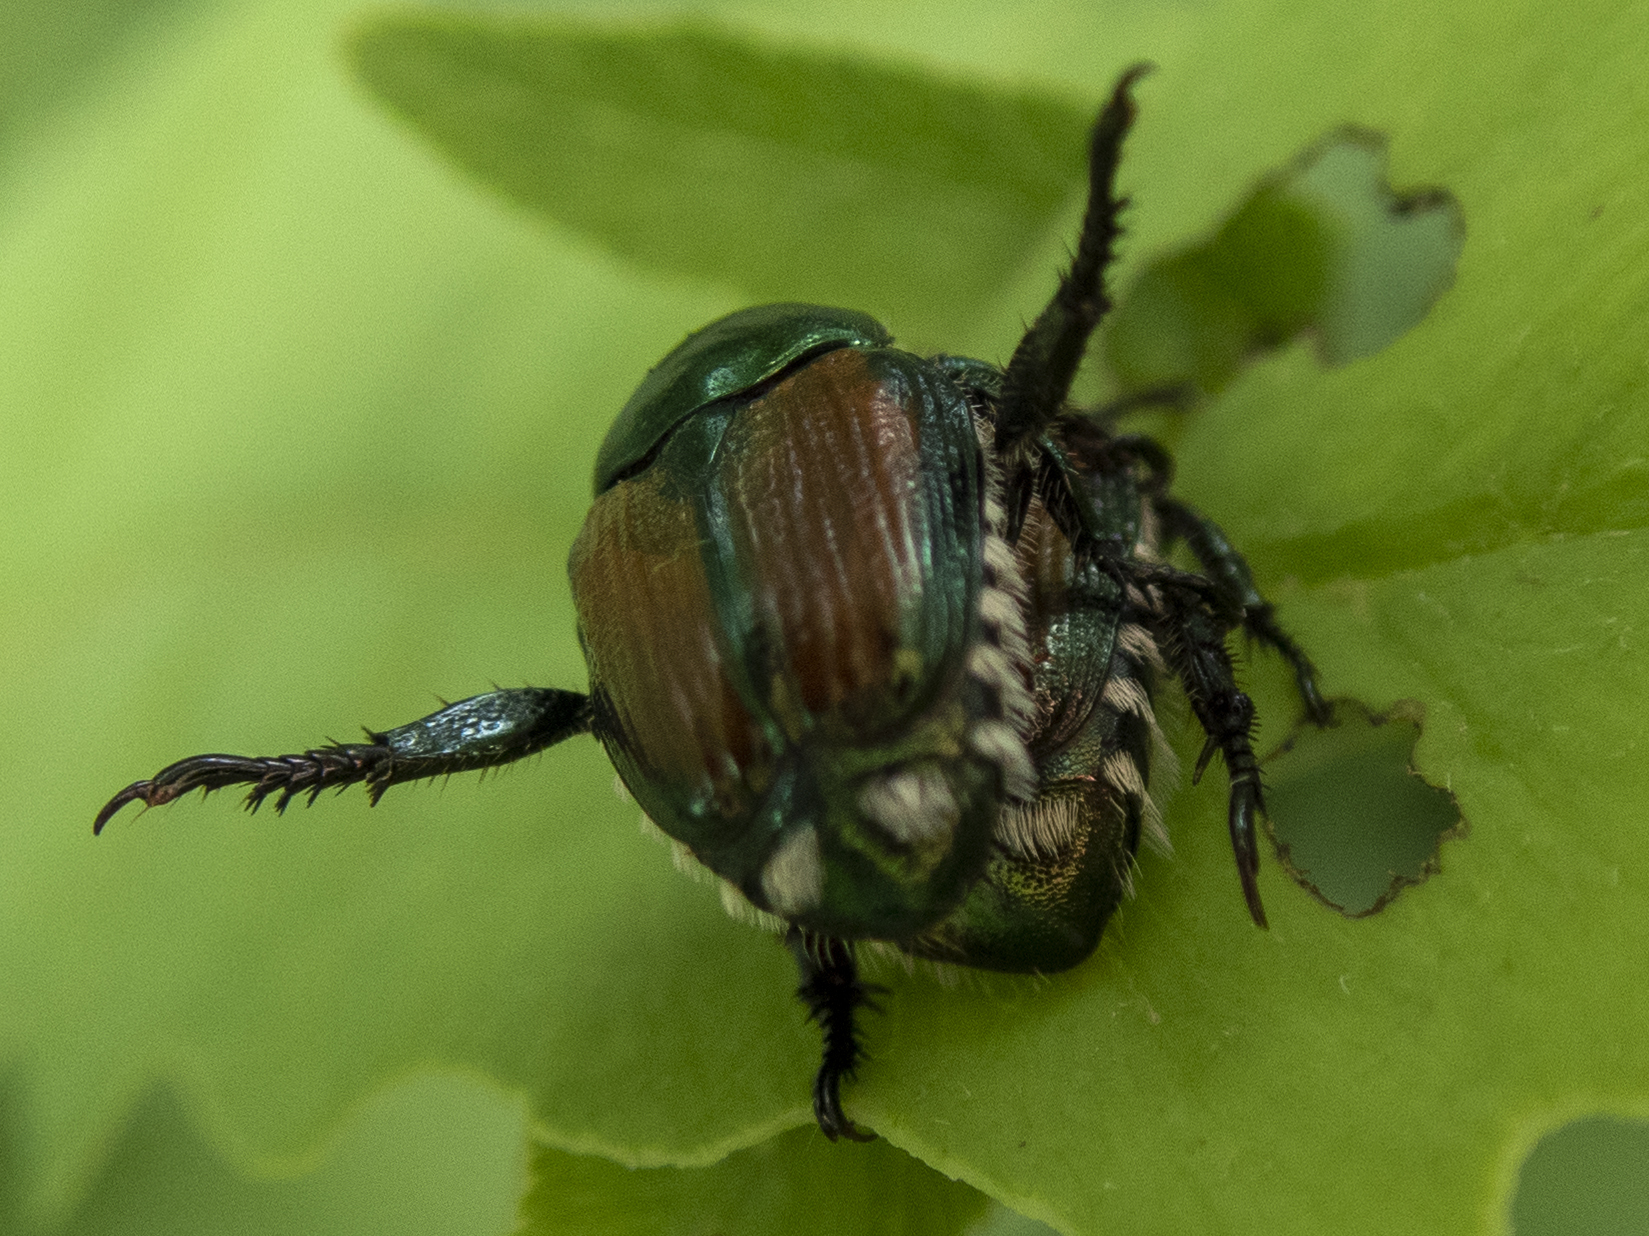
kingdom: Animalia
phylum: Arthropoda
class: Insecta
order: Coleoptera
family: Scarabaeidae
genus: Popillia
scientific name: Popillia japonica
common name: Japanese beetle
